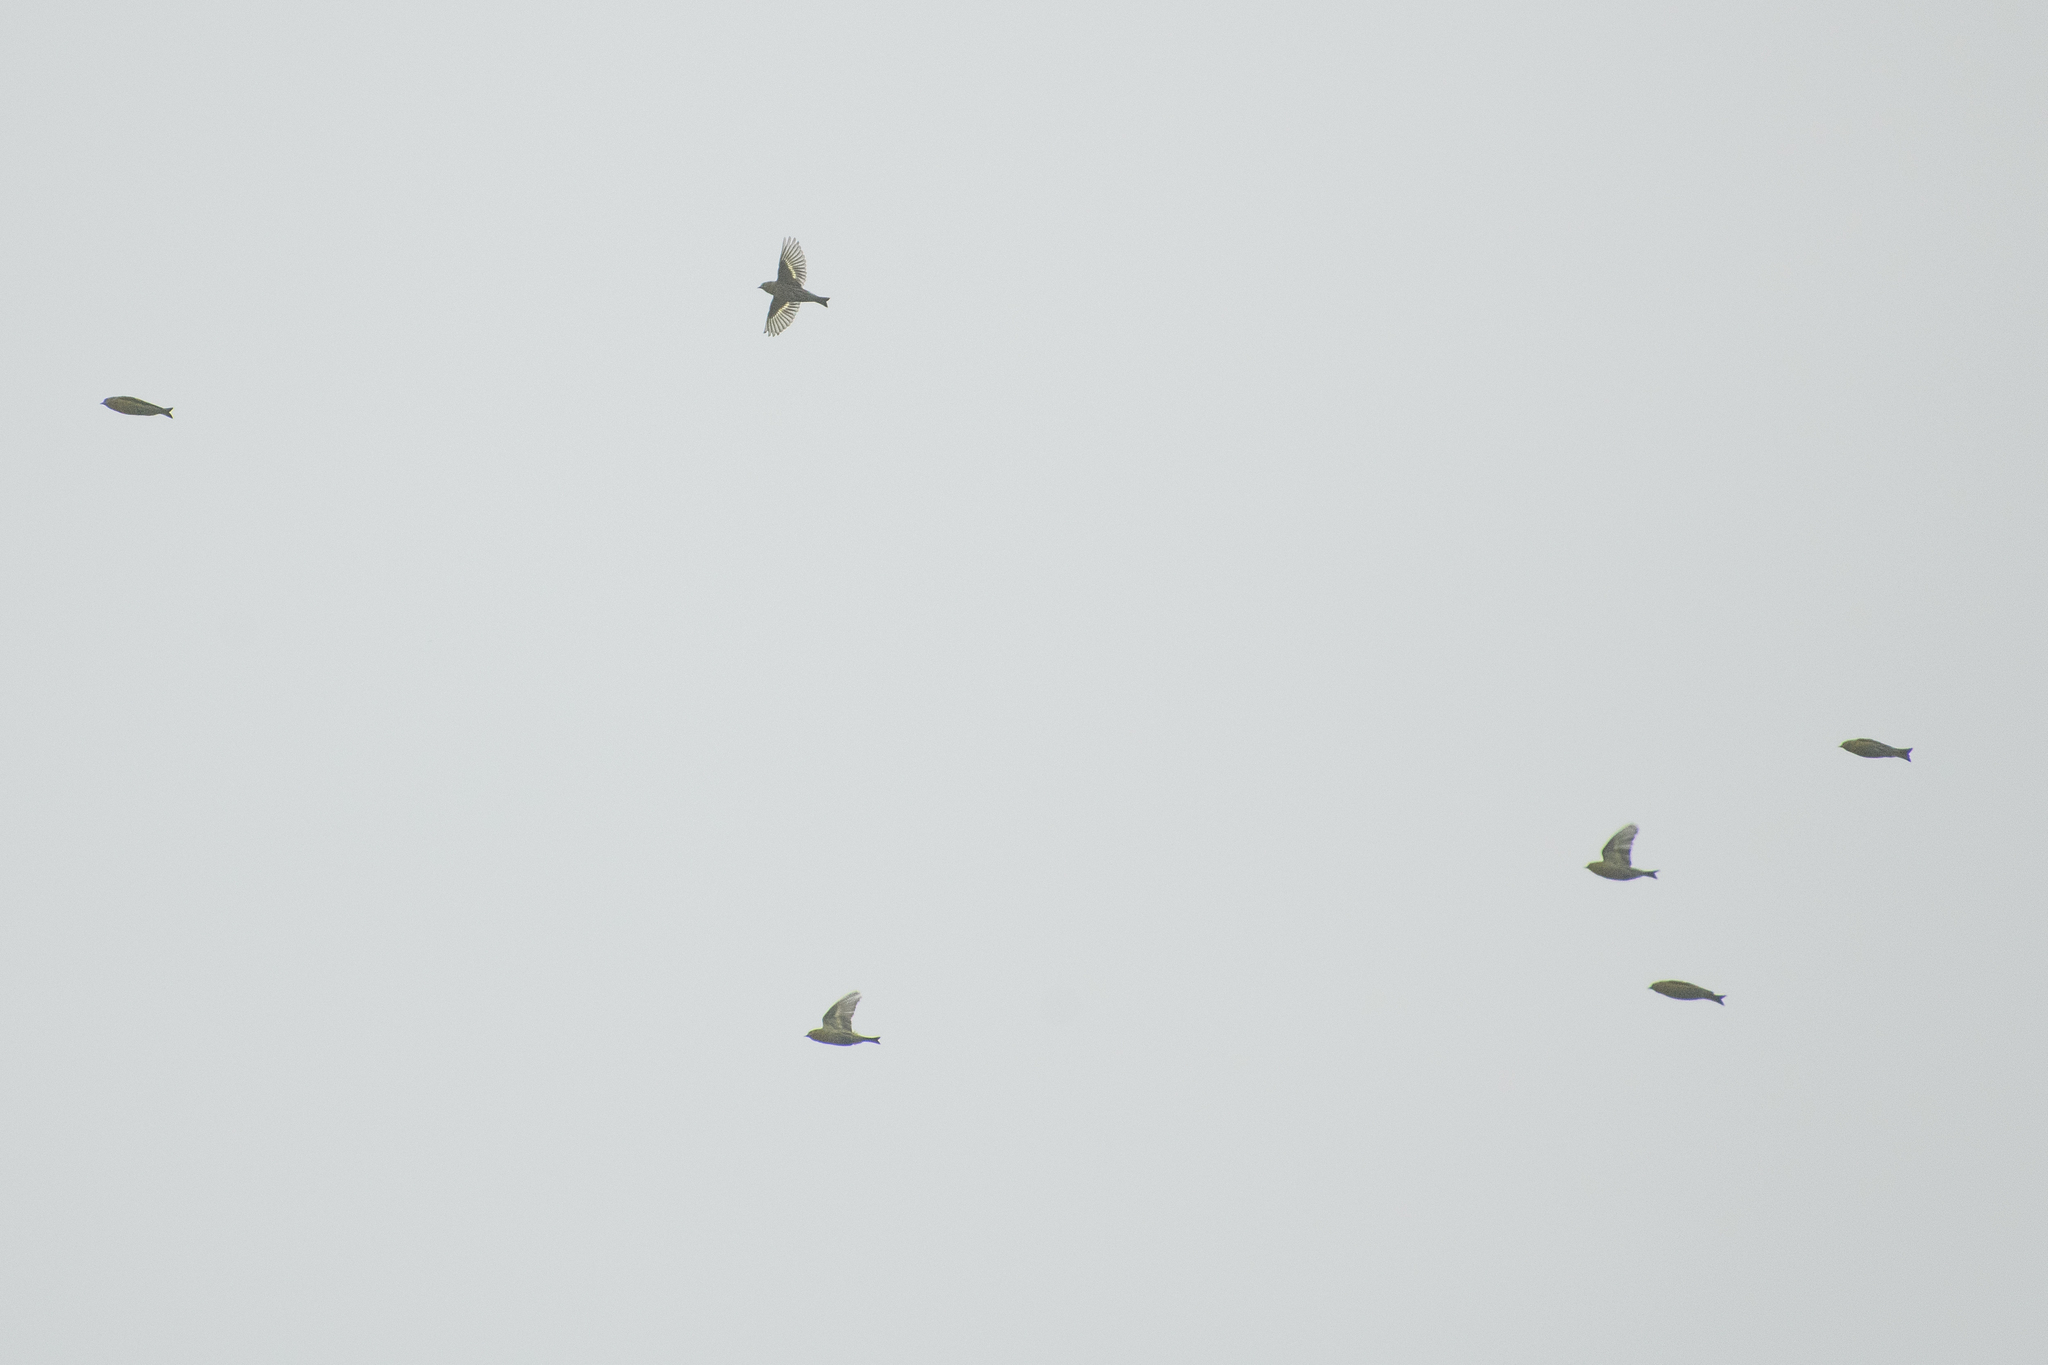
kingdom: Animalia
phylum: Chordata
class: Aves
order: Passeriformes
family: Fringillidae
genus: Spinus
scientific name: Spinus spinus
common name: Eurasian siskin
